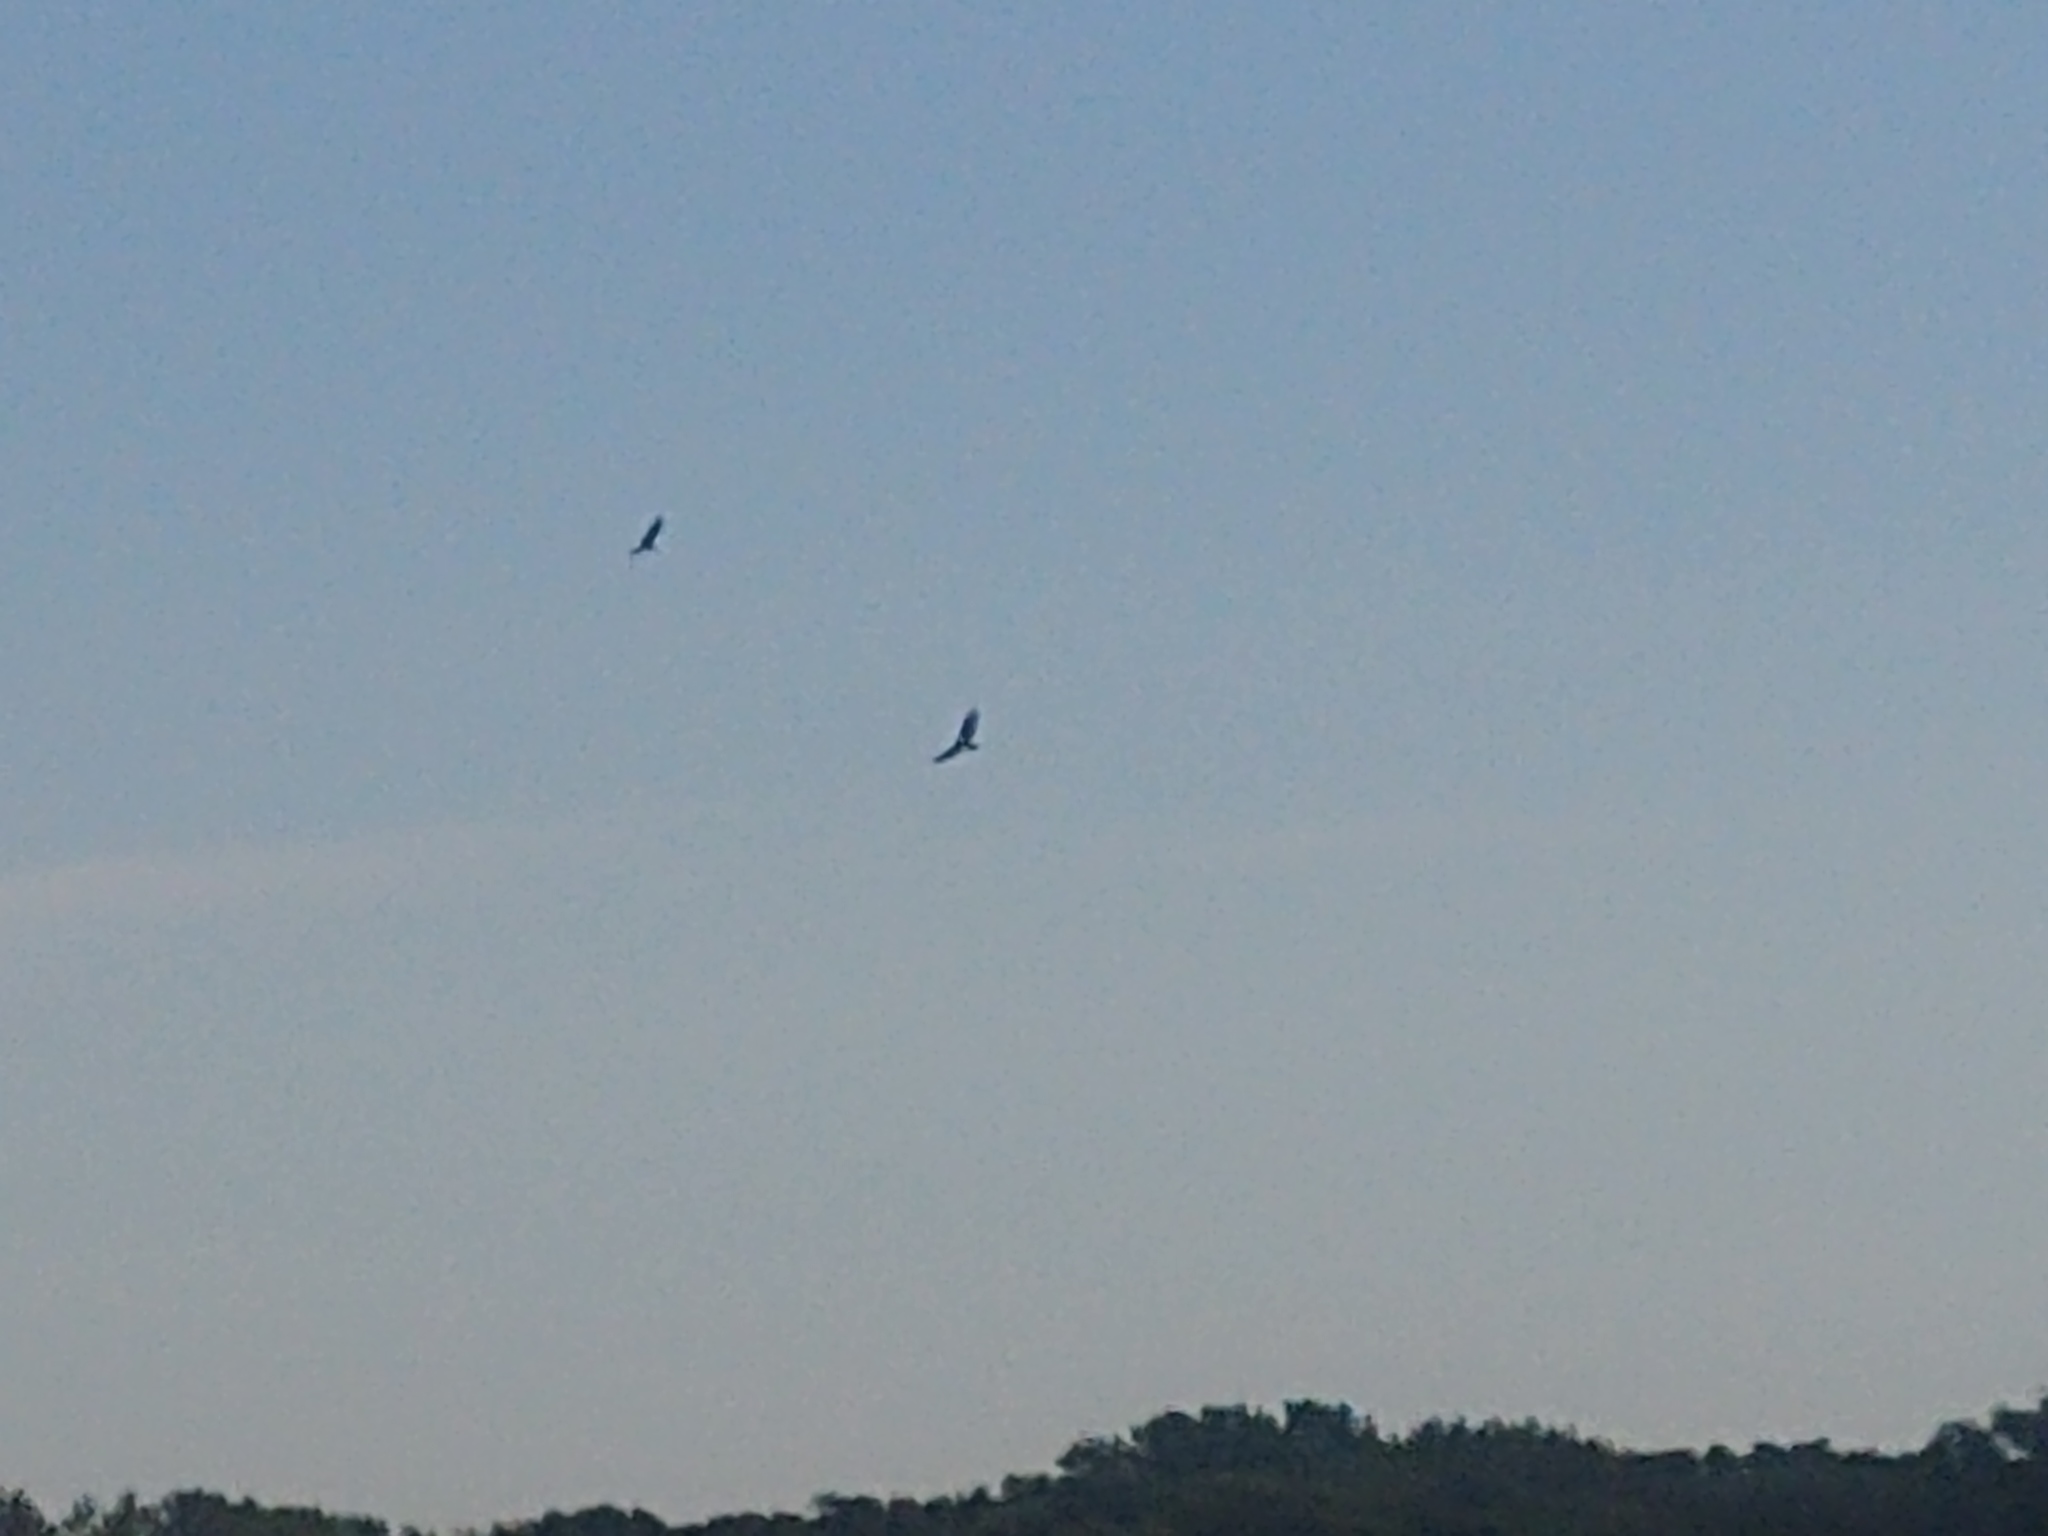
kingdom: Animalia
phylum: Chordata
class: Aves
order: Accipitriformes
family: Cathartidae
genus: Cathartes
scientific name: Cathartes aura
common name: Turkey vulture
